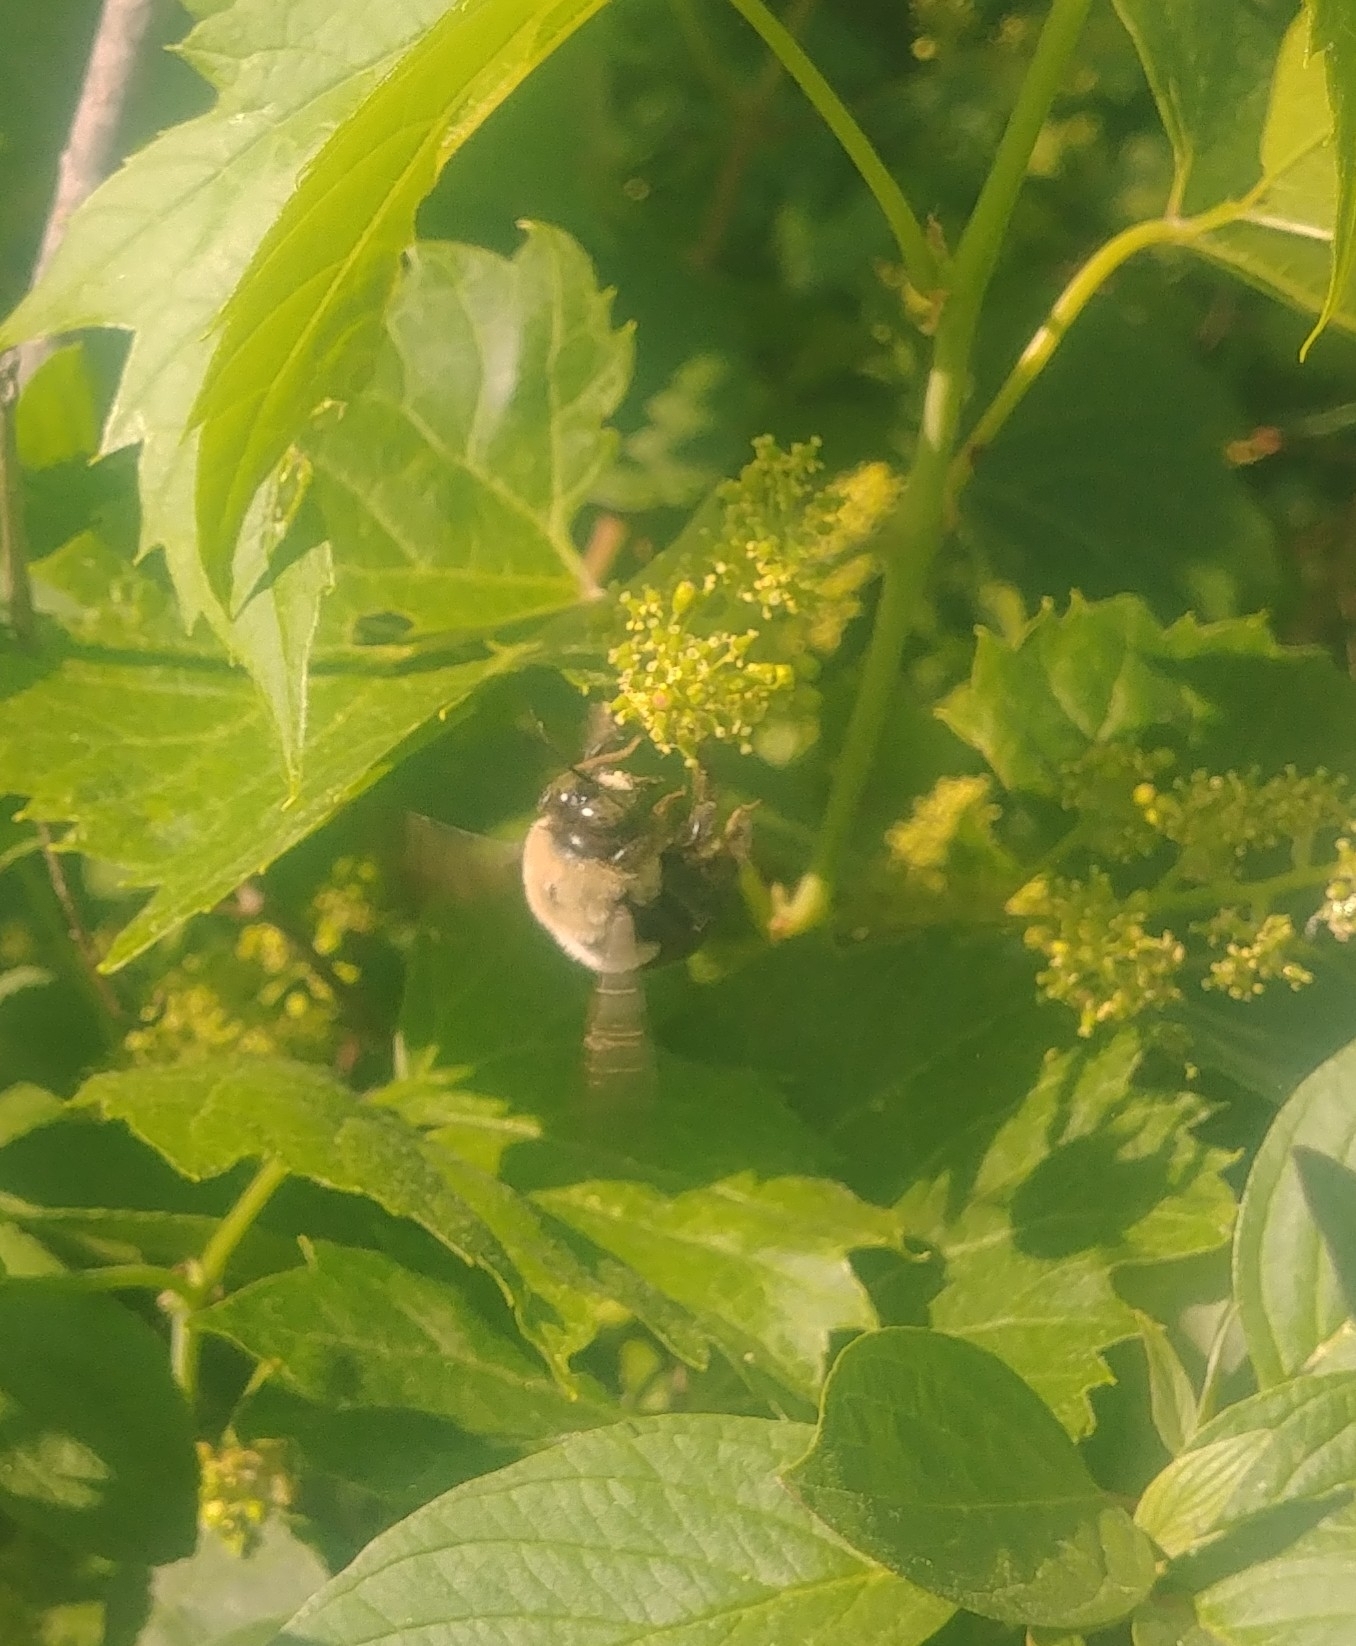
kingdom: Animalia
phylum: Arthropoda
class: Insecta
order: Hymenoptera
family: Apidae
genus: Xylocopa
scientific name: Xylocopa virginica
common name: Carpenter bee
